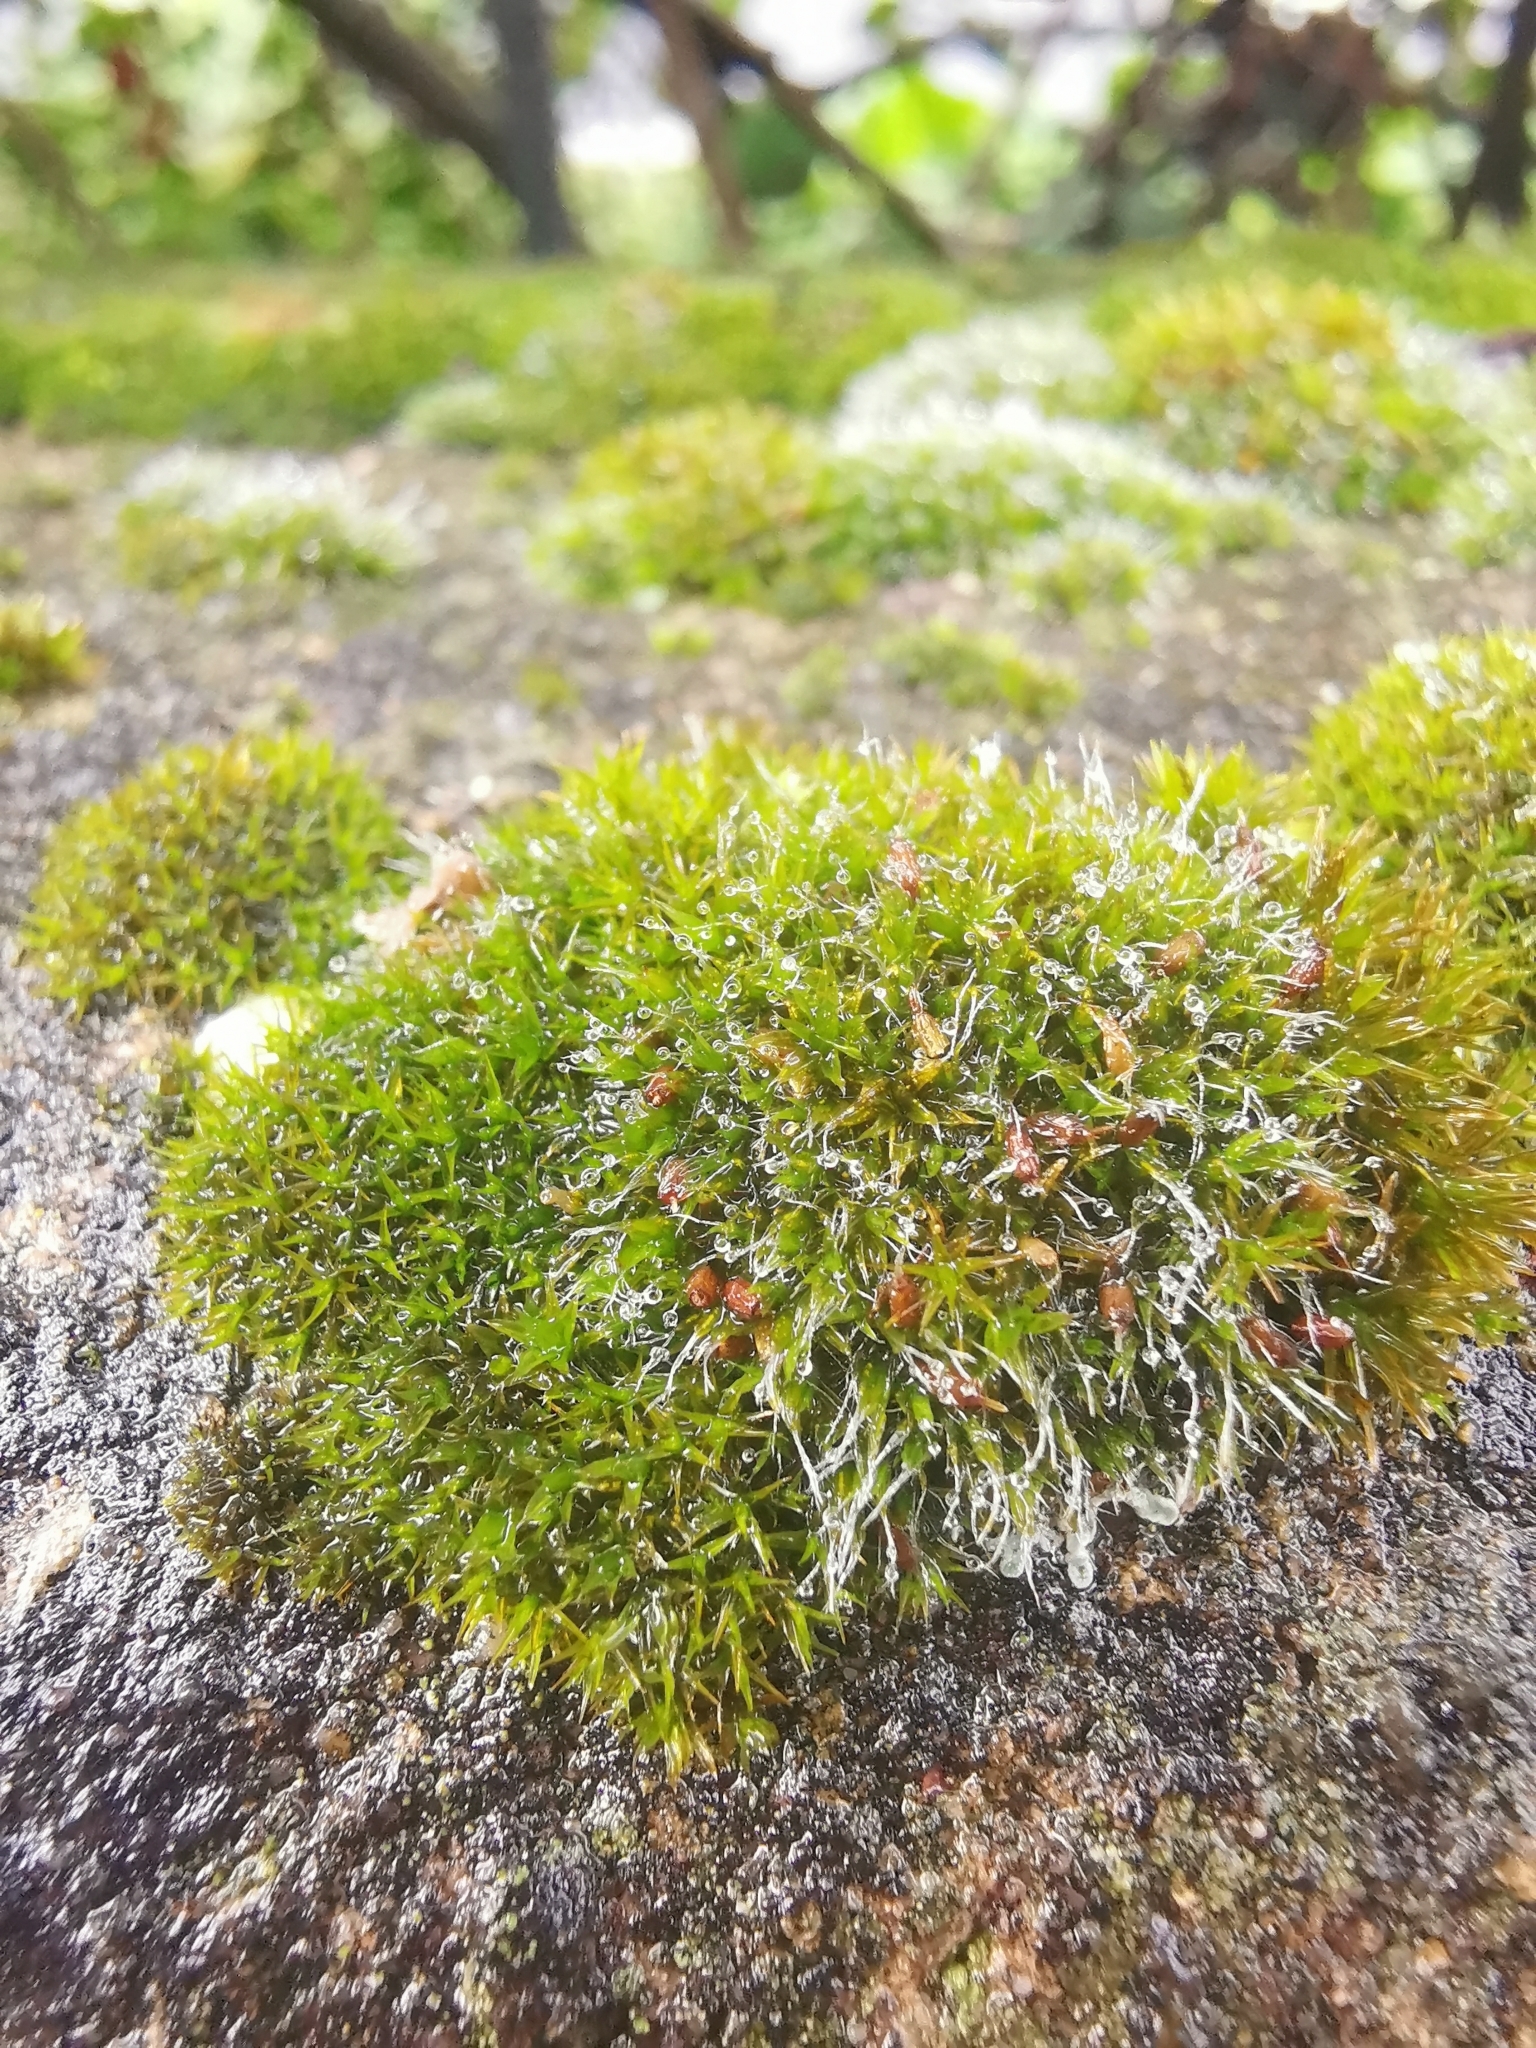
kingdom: Plantae
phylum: Bryophyta
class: Bryopsida
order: Grimmiales
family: Grimmiaceae
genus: Grimmia
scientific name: Grimmia pulvinata
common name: Grey-cushioned grimmia
